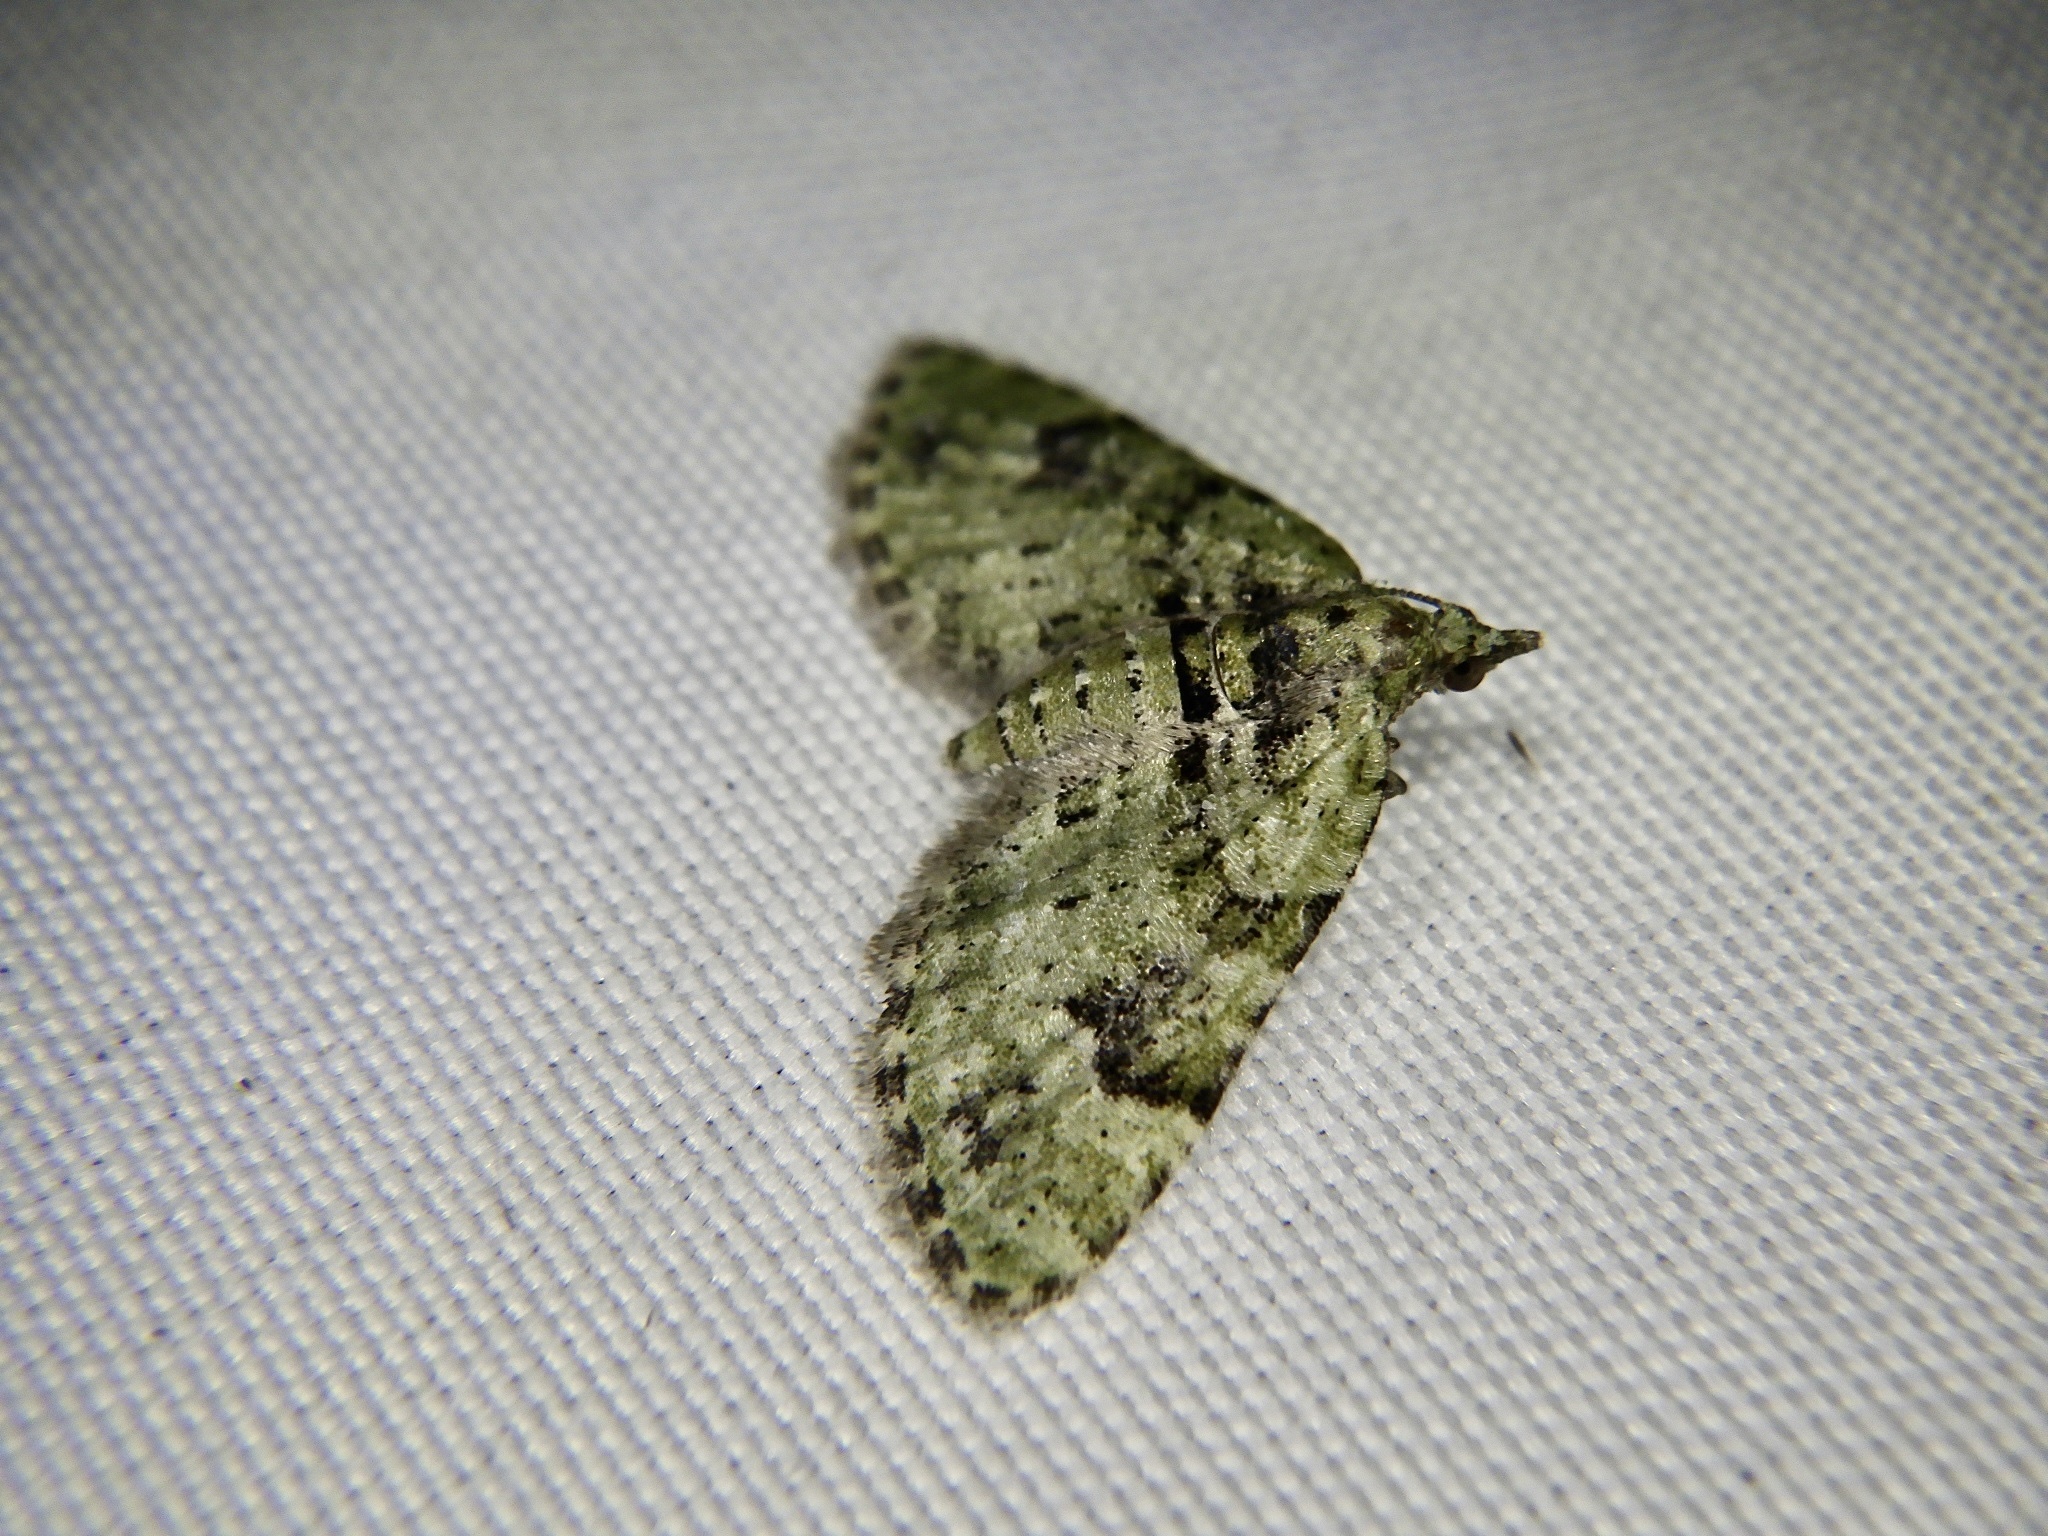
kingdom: Animalia
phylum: Arthropoda
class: Insecta
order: Lepidoptera
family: Geometridae
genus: Chloroclystis
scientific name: Chloroclystis v-ata
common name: V-pug
